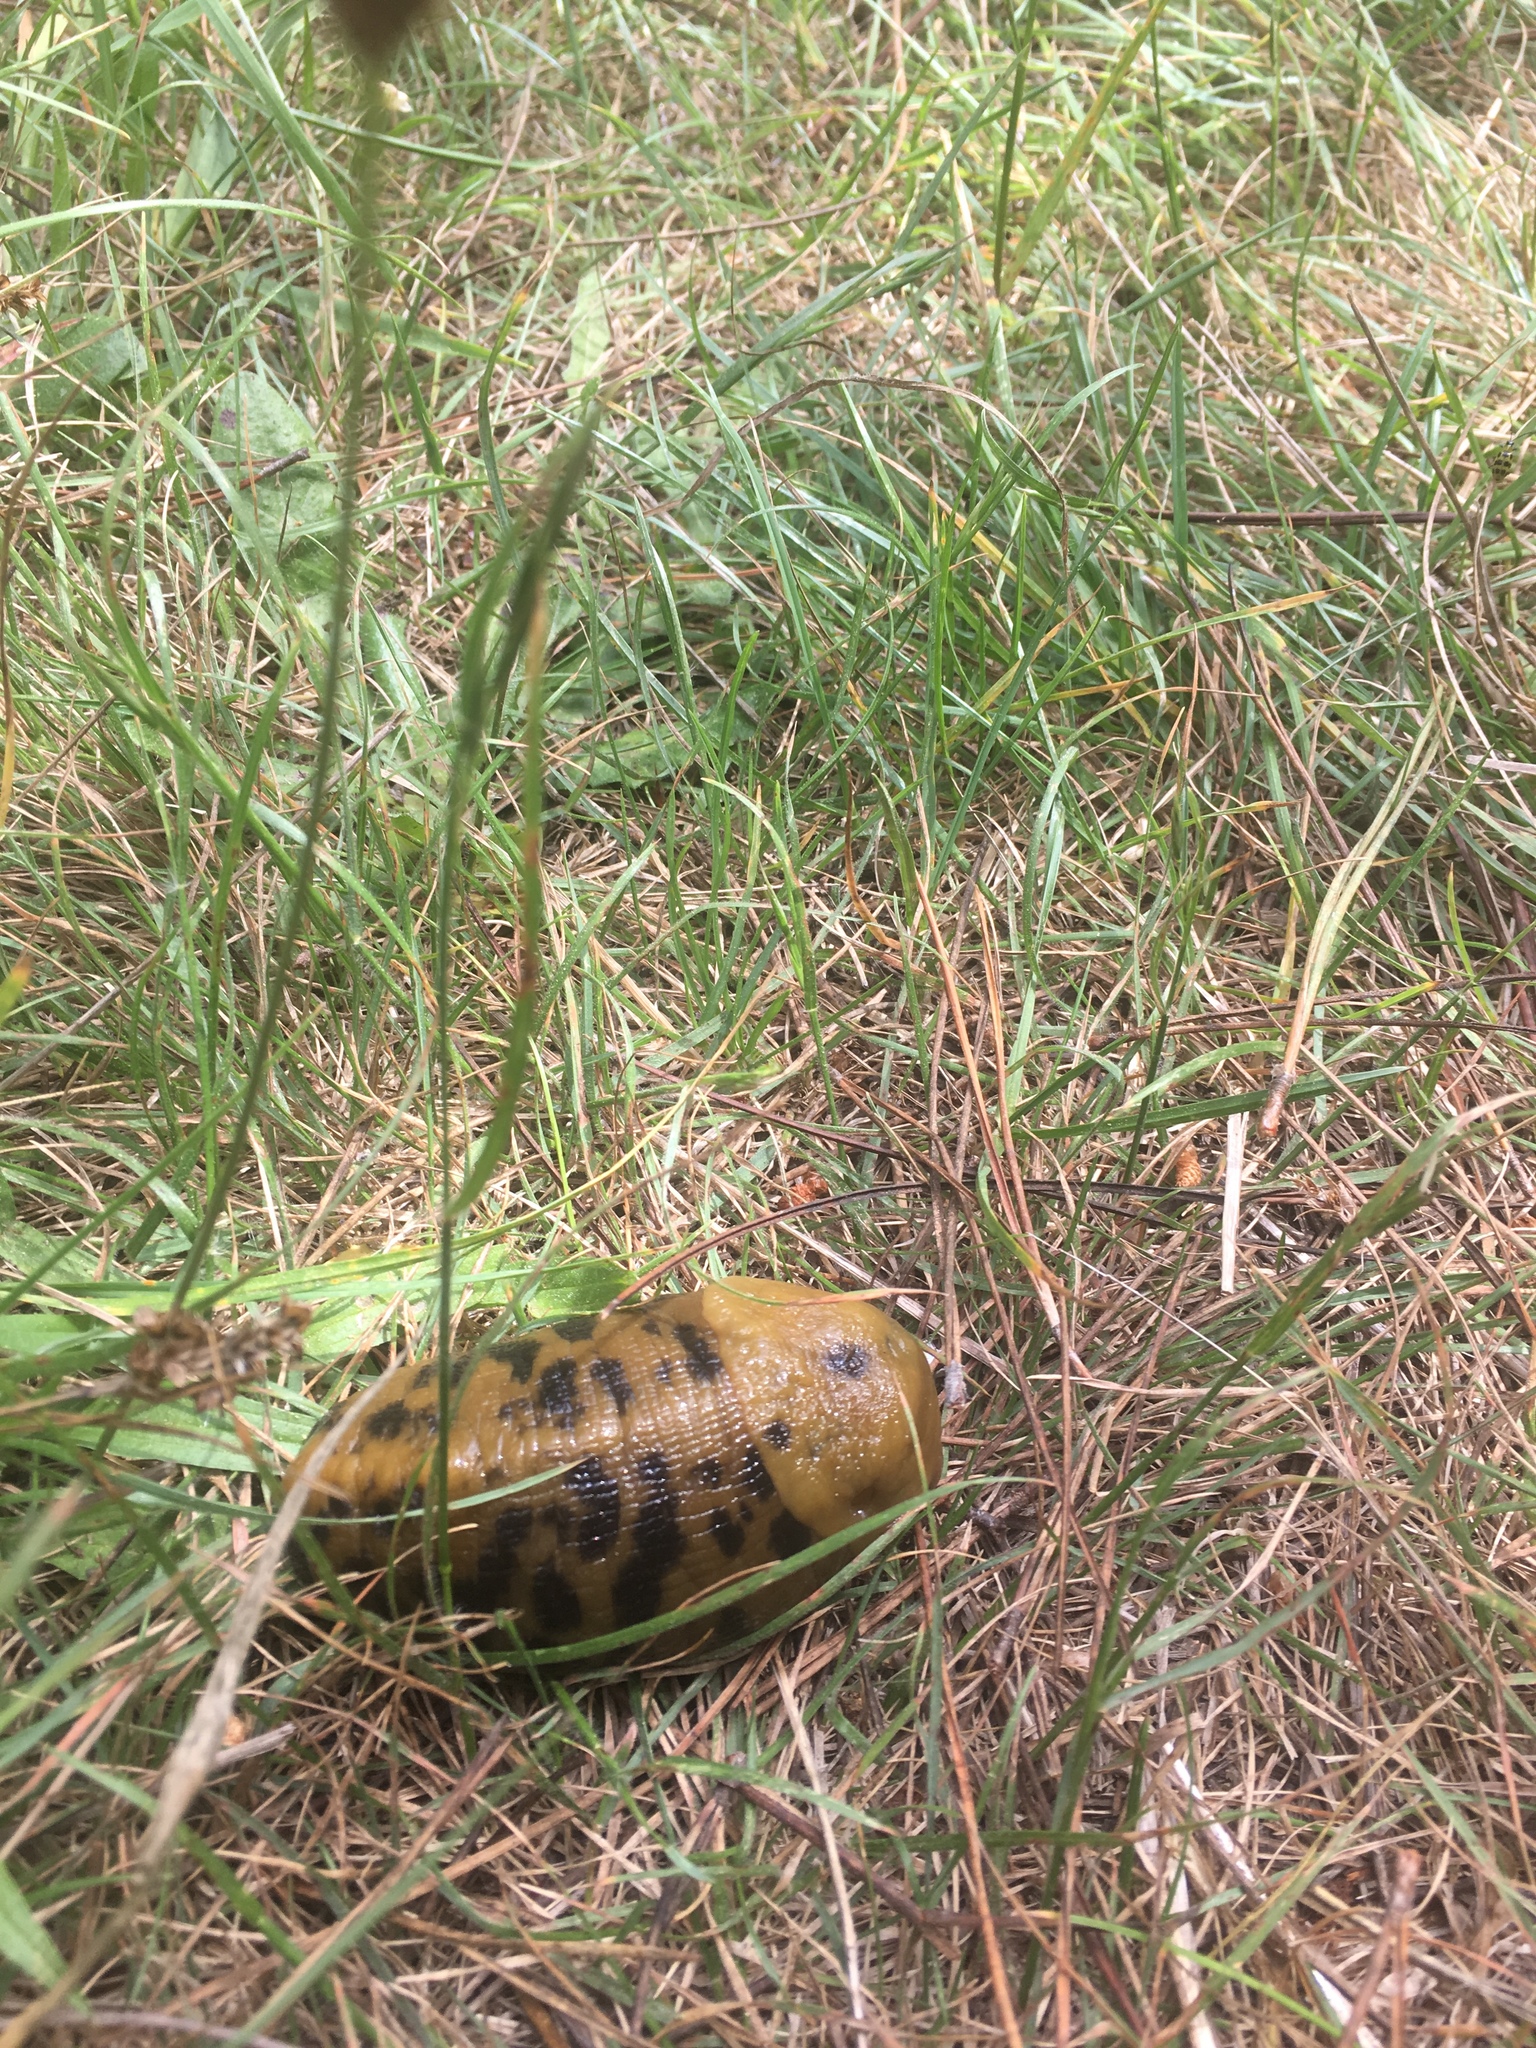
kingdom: Animalia
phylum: Mollusca
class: Gastropoda
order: Stylommatophora
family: Ariolimacidae
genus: Ariolimax
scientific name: Ariolimax buttoni
